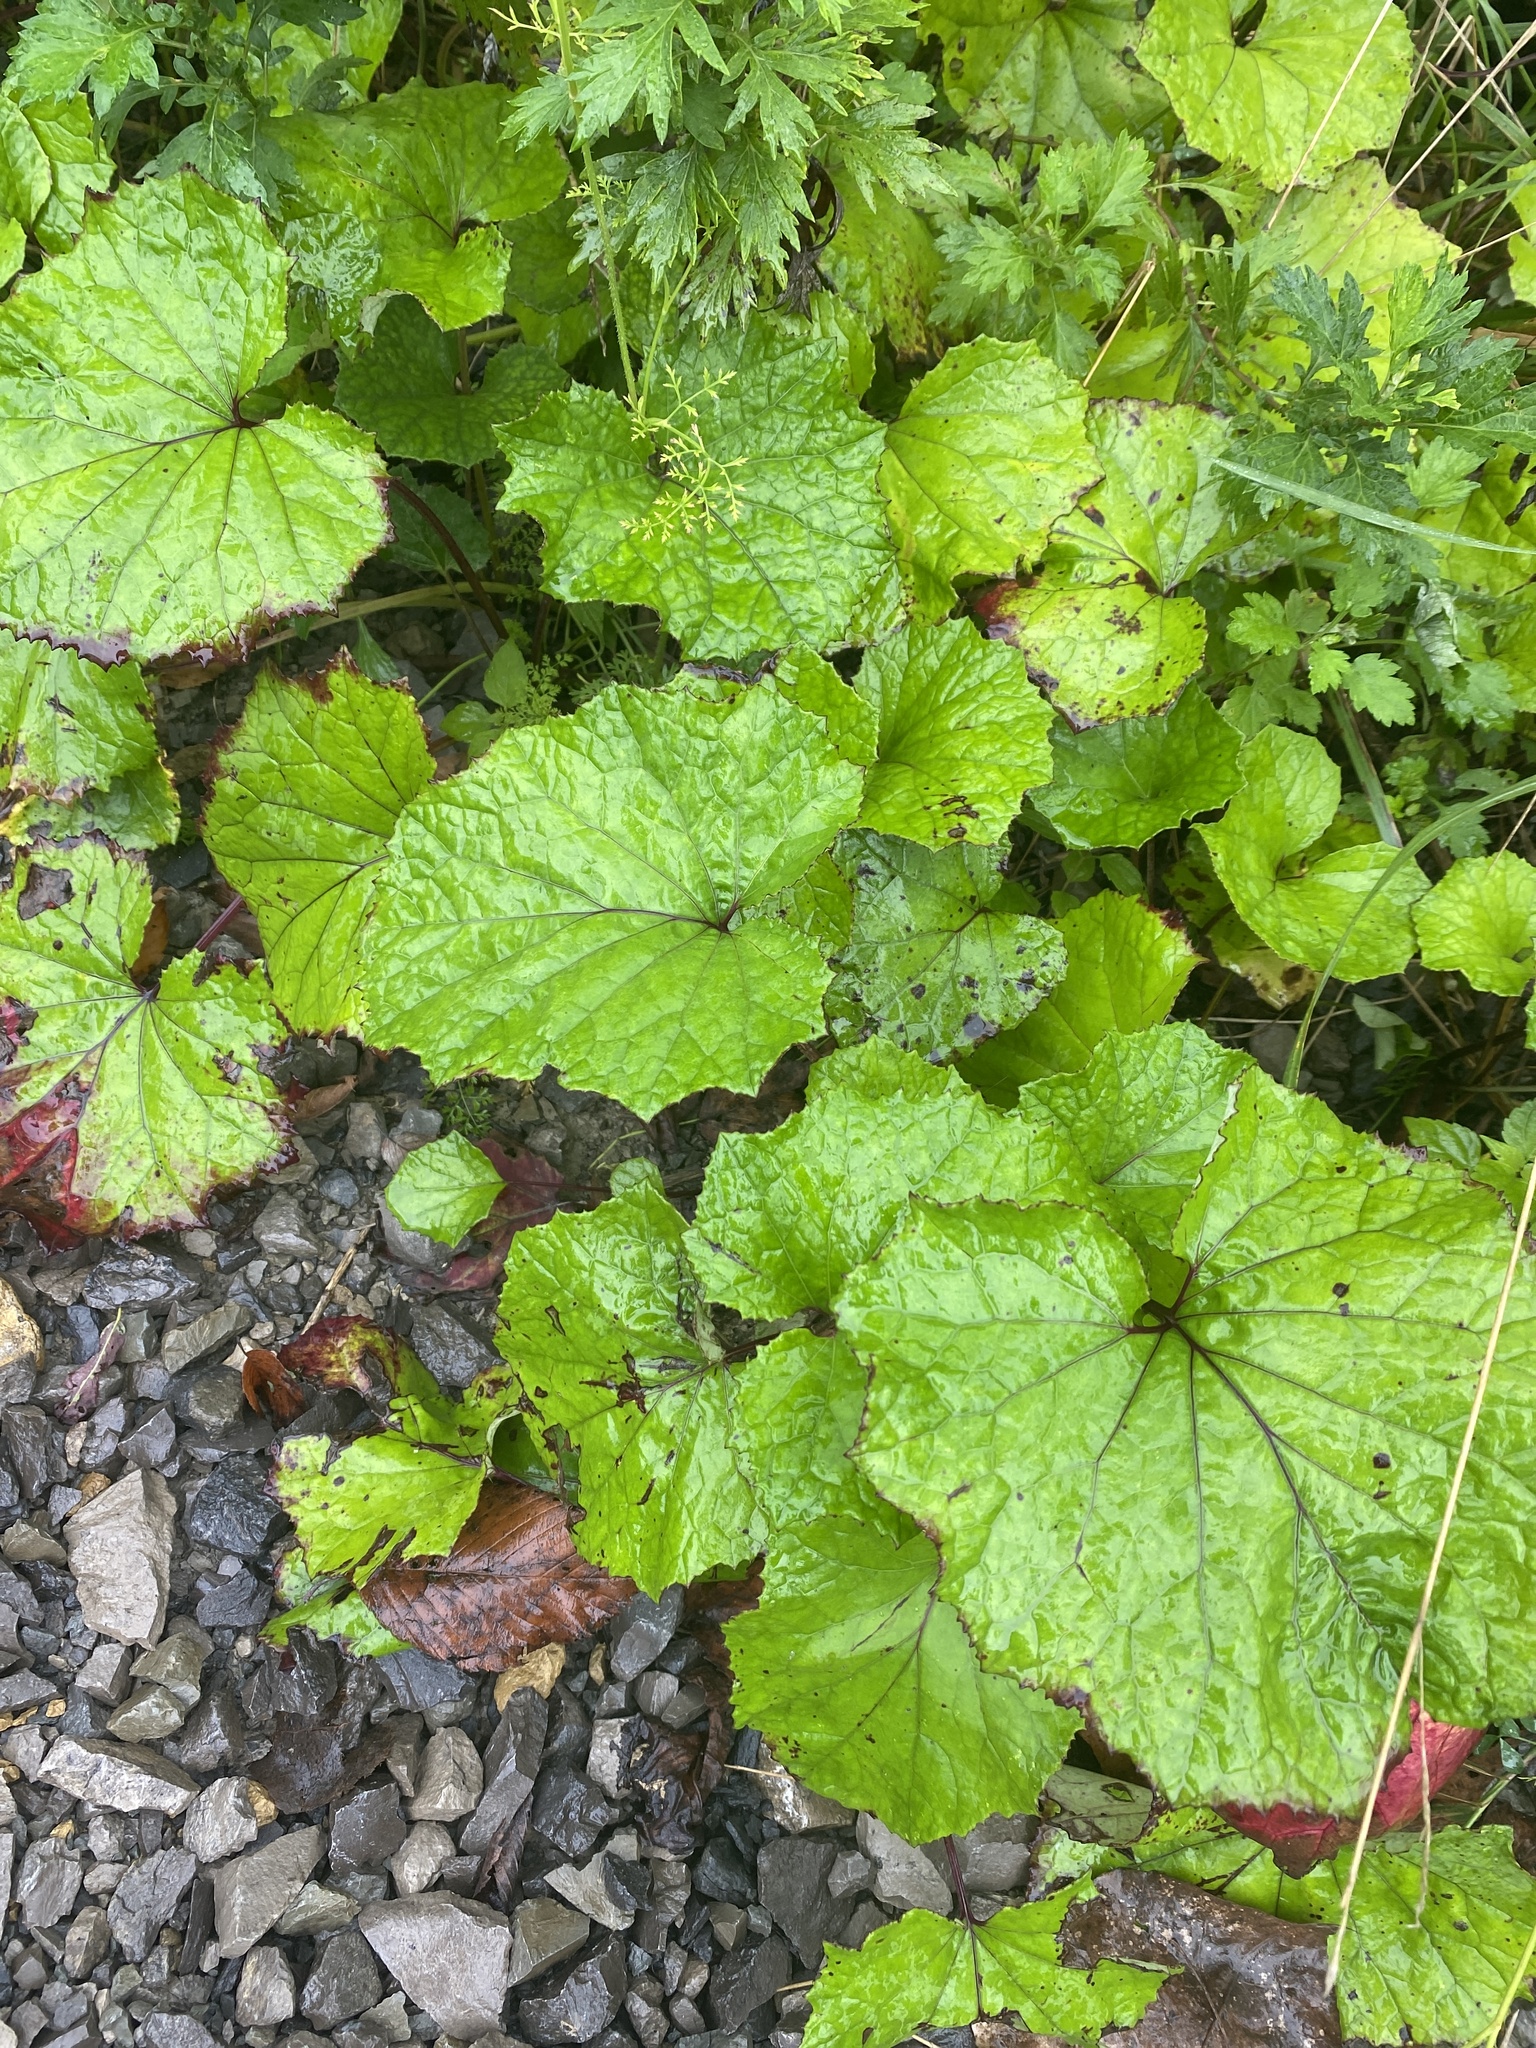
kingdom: Plantae
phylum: Tracheophyta
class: Magnoliopsida
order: Asterales
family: Asteraceae
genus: Tussilago
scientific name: Tussilago farfara
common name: Coltsfoot
